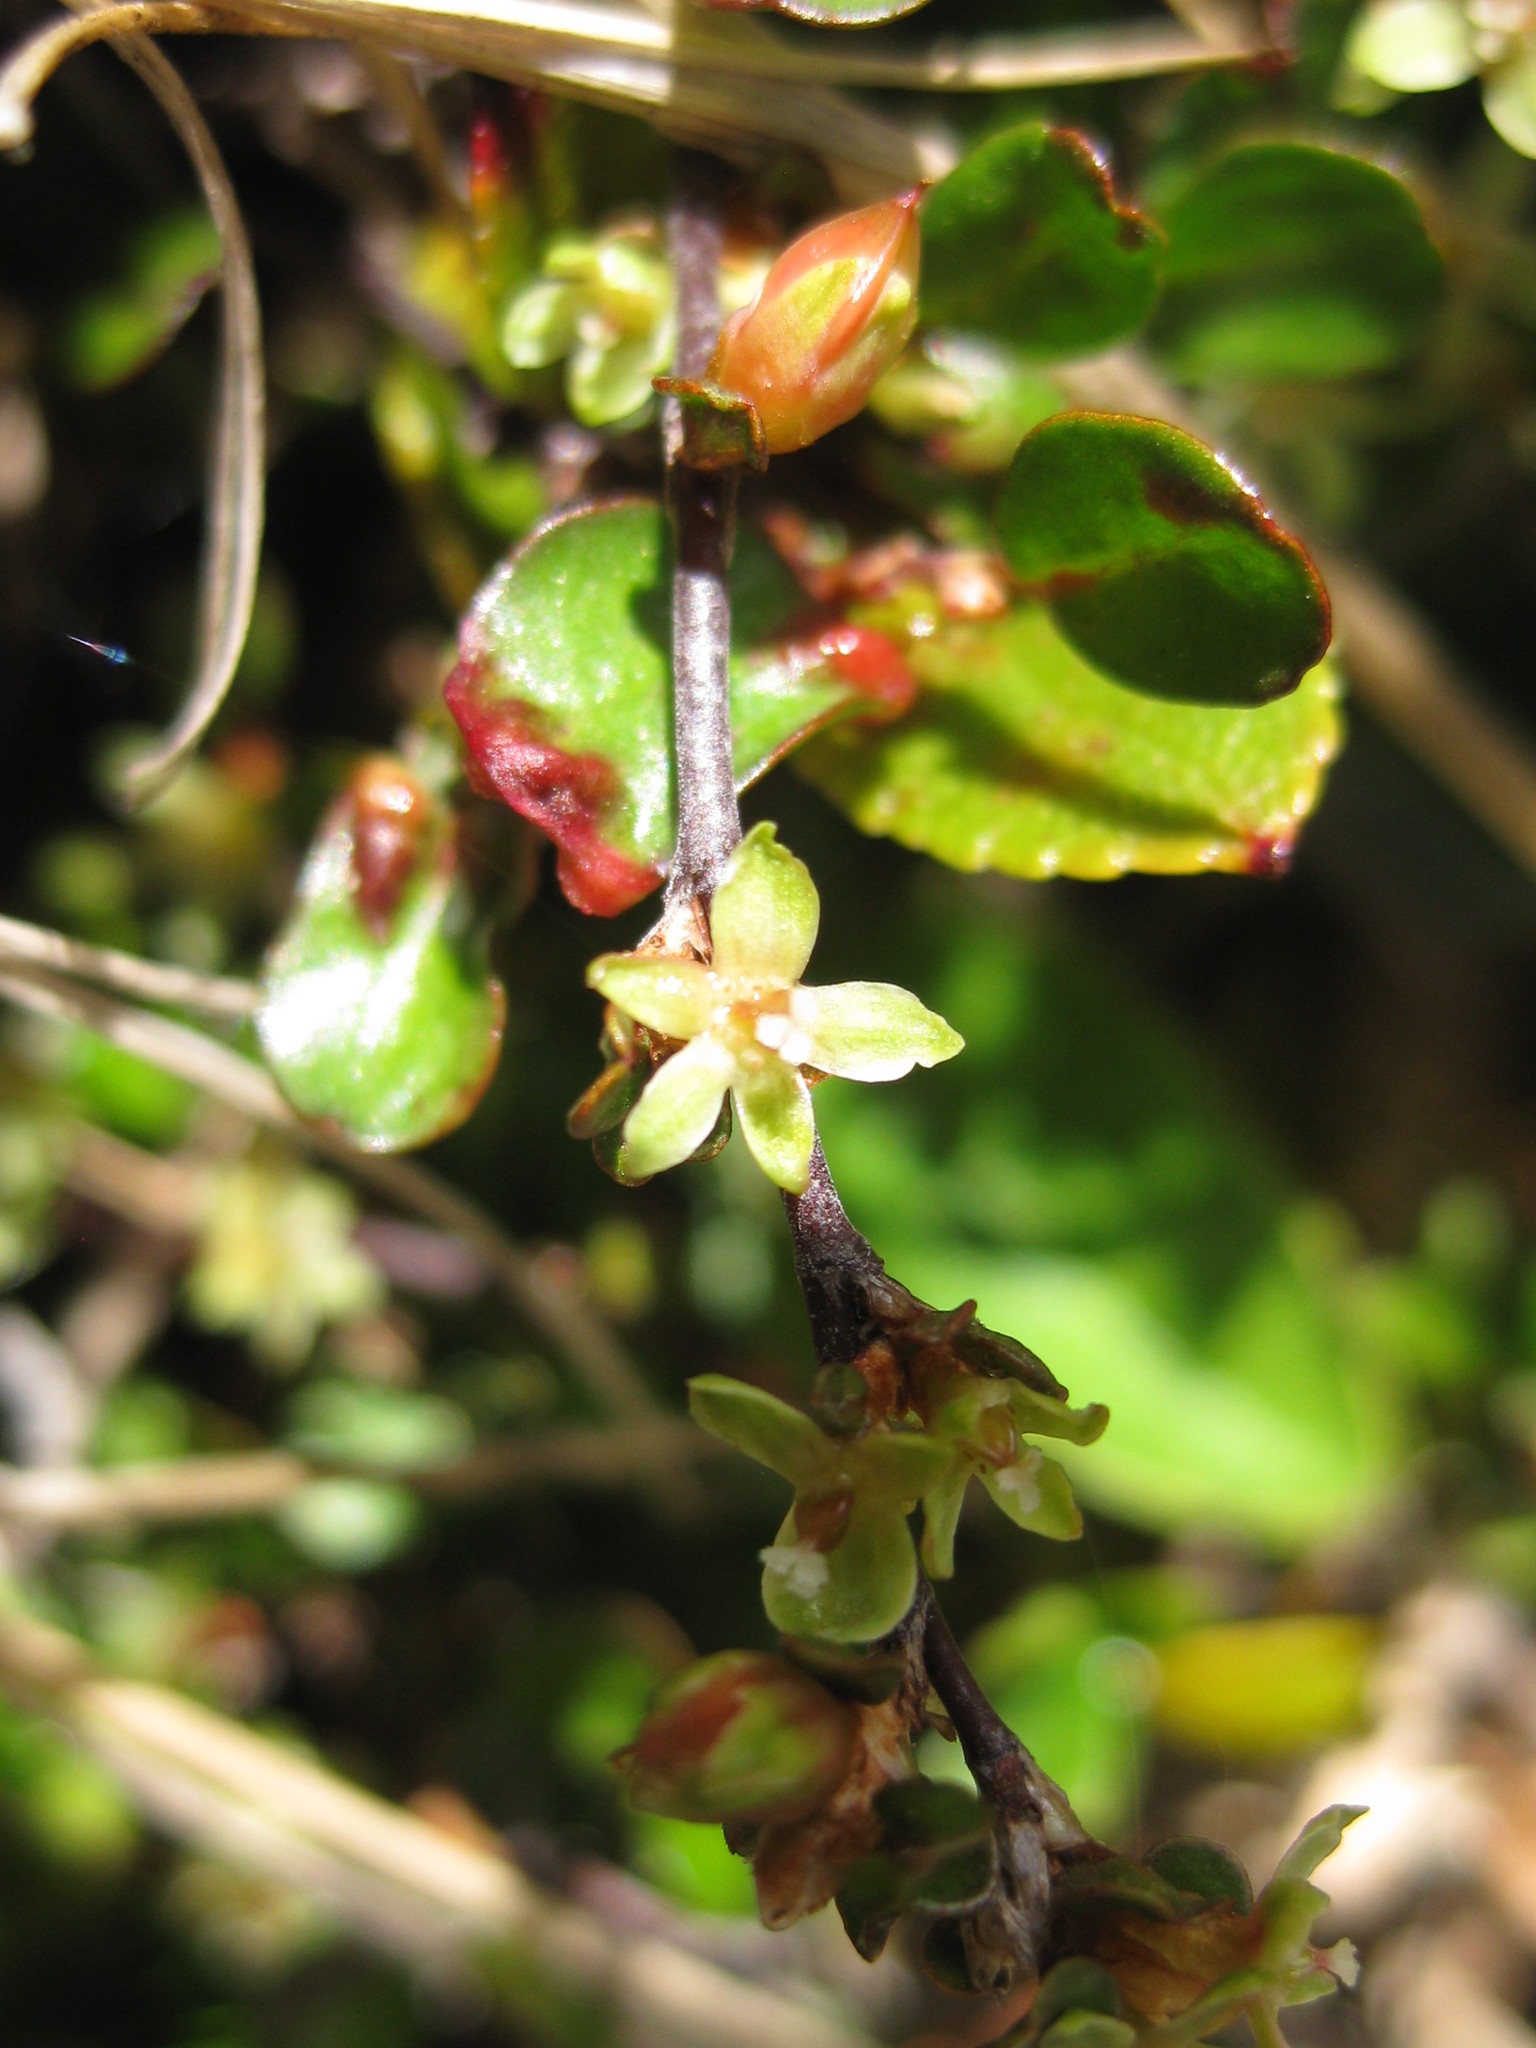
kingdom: Plantae
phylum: Tracheophyta
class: Magnoliopsida
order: Caryophyllales
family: Polygonaceae
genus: Muehlenbeckia
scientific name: Muehlenbeckia axillaris
